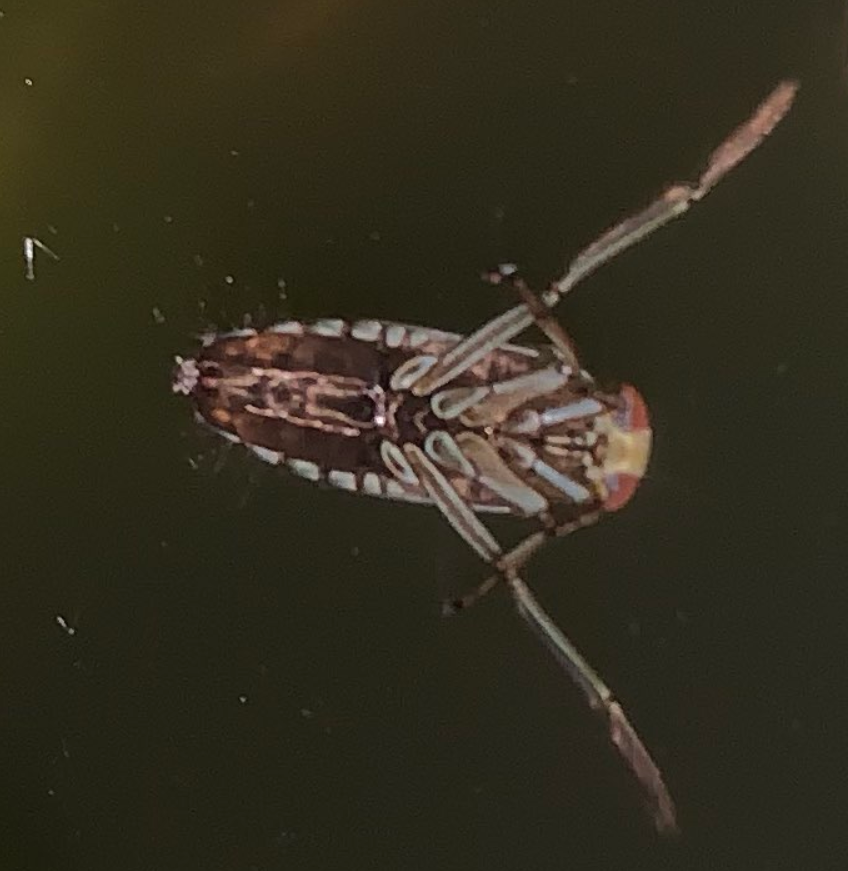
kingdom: Animalia
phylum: Arthropoda
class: Insecta
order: Hemiptera
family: Notonectidae
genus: Notonecta
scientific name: Notonecta
